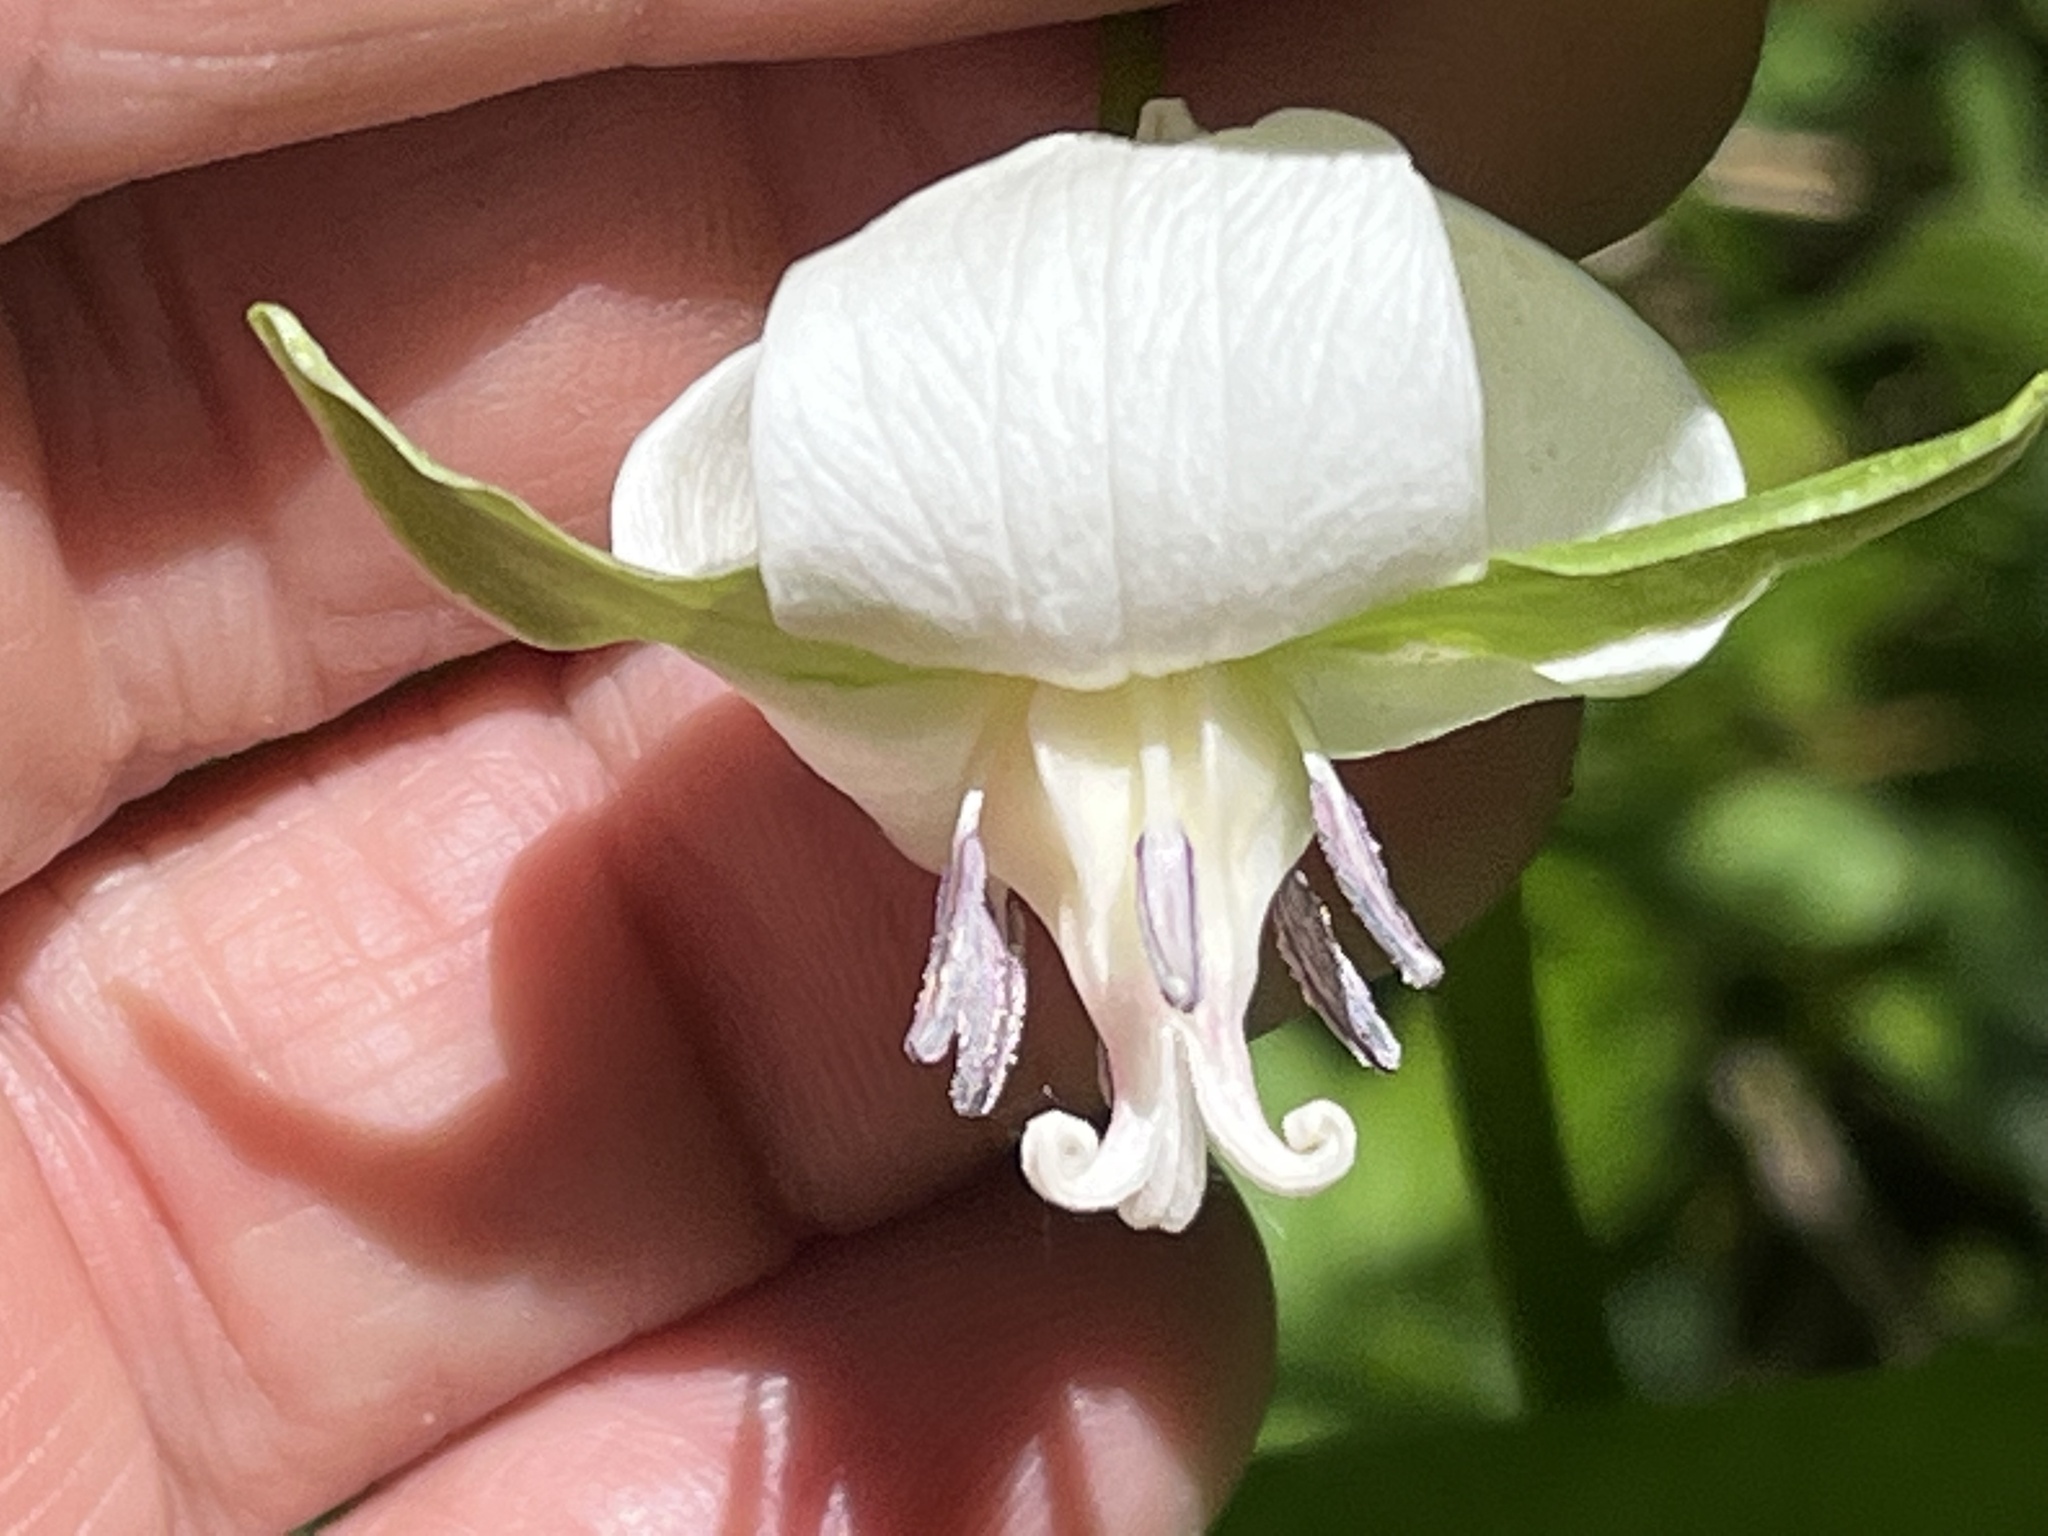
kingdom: Plantae
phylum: Tracheophyta
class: Liliopsida
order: Liliales
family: Melanthiaceae
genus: Trillium
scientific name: Trillium cernuum
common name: Nodding trillium
